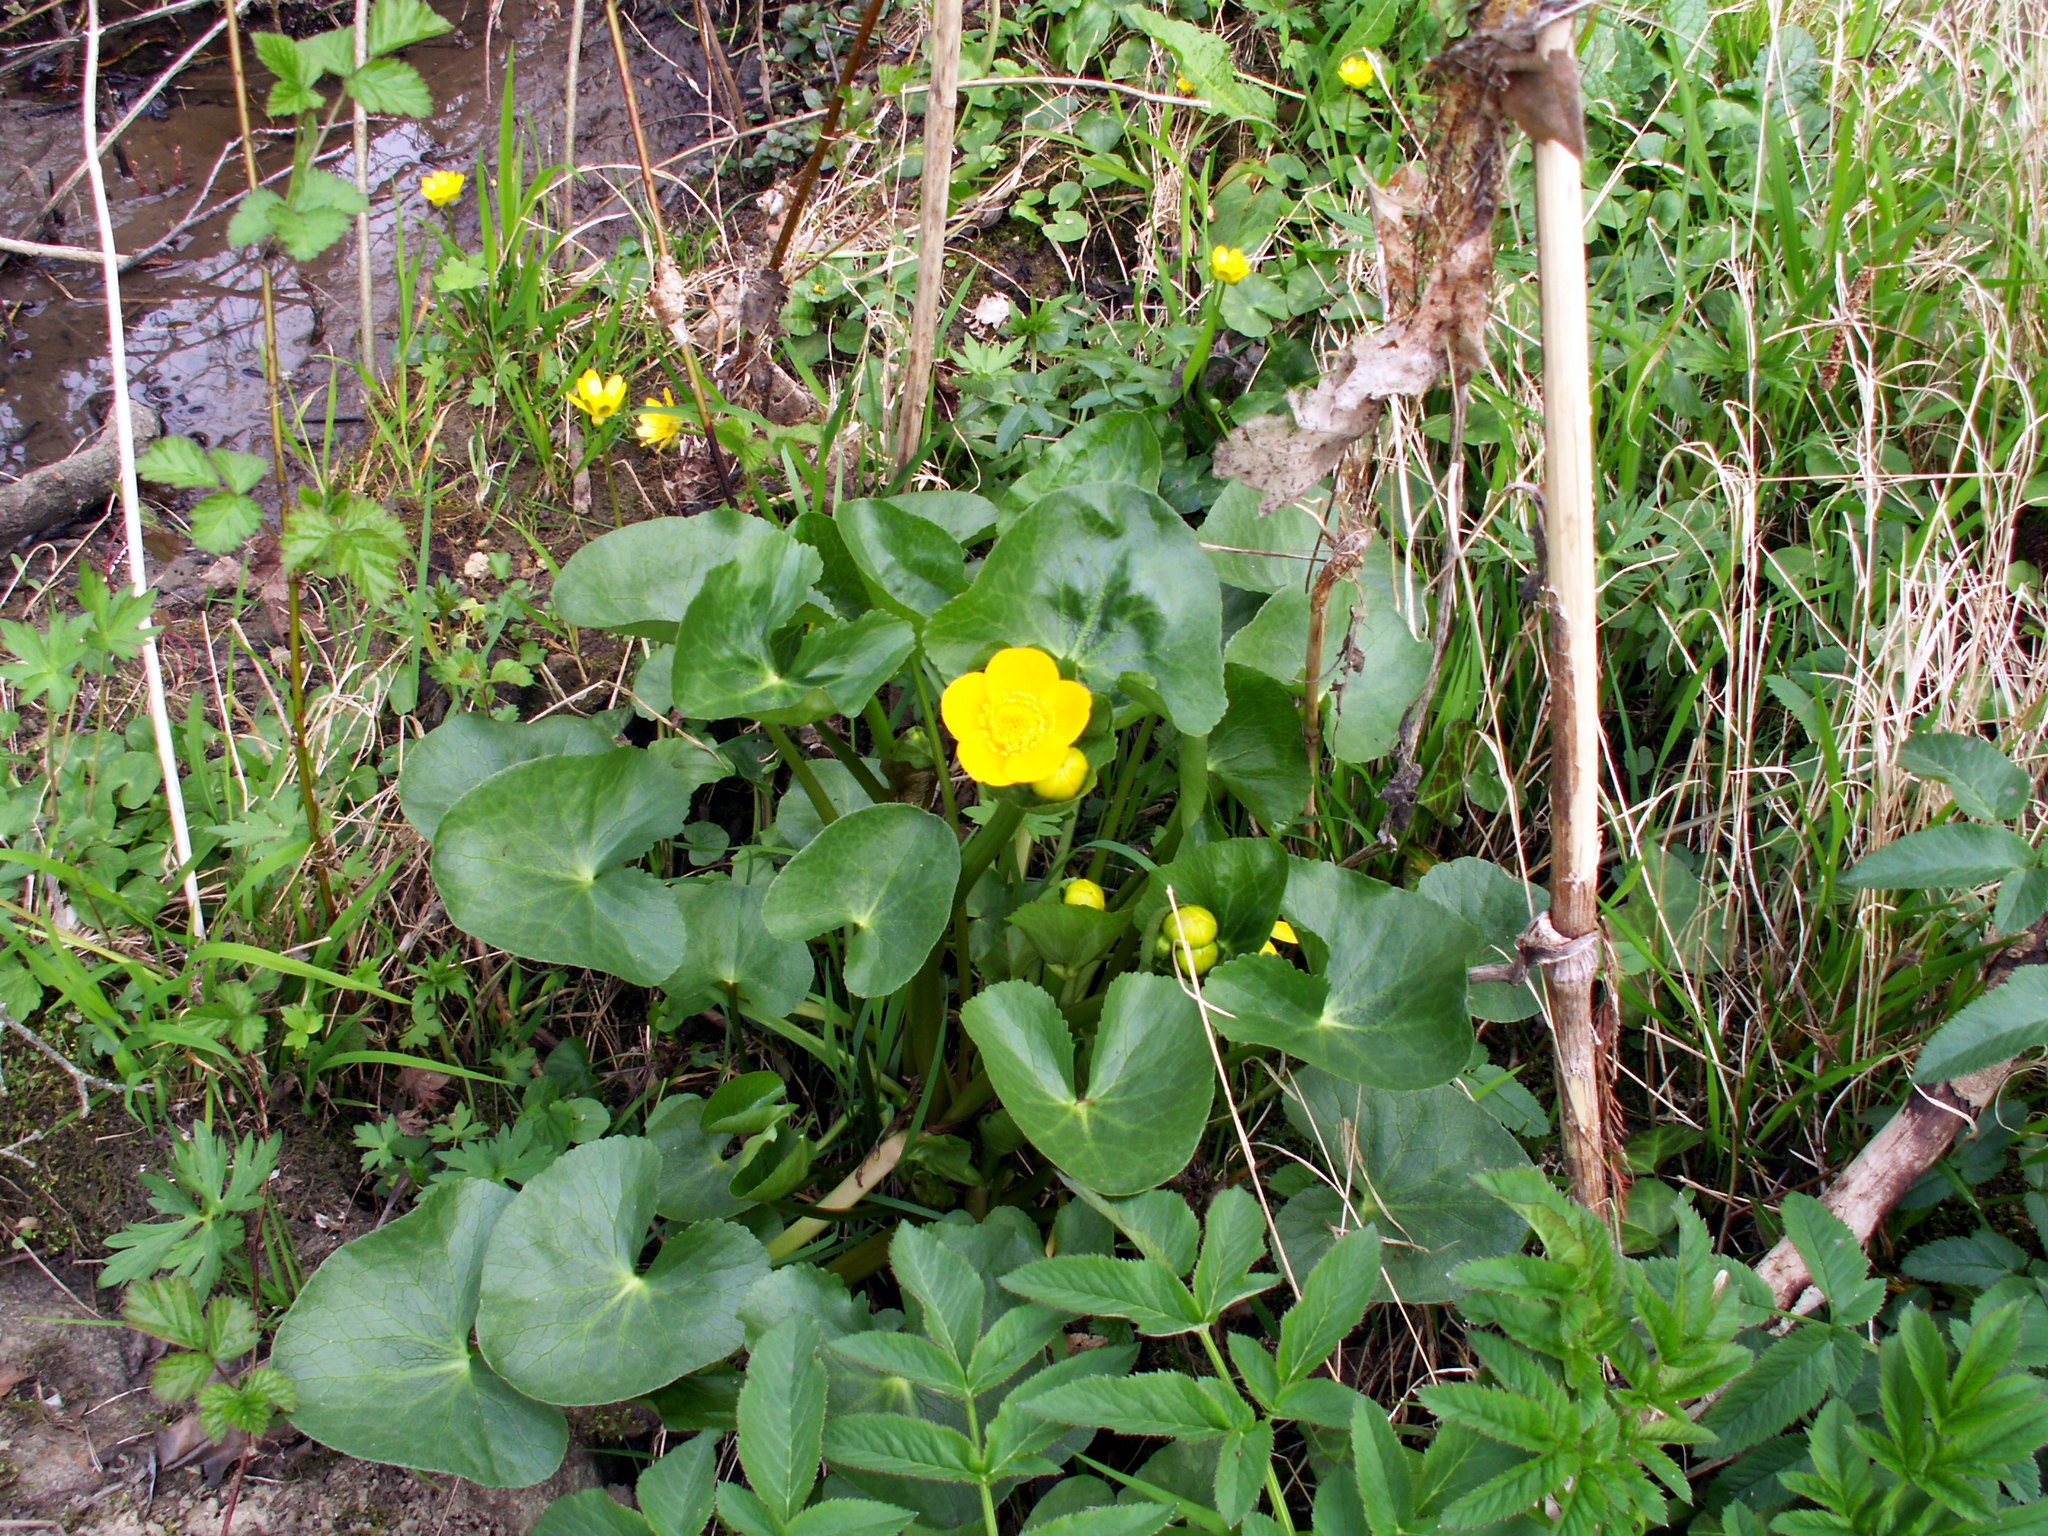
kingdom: Plantae
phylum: Tracheophyta
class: Magnoliopsida
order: Ranunculales
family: Ranunculaceae
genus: Caltha
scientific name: Caltha palustris
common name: Marsh marigold
